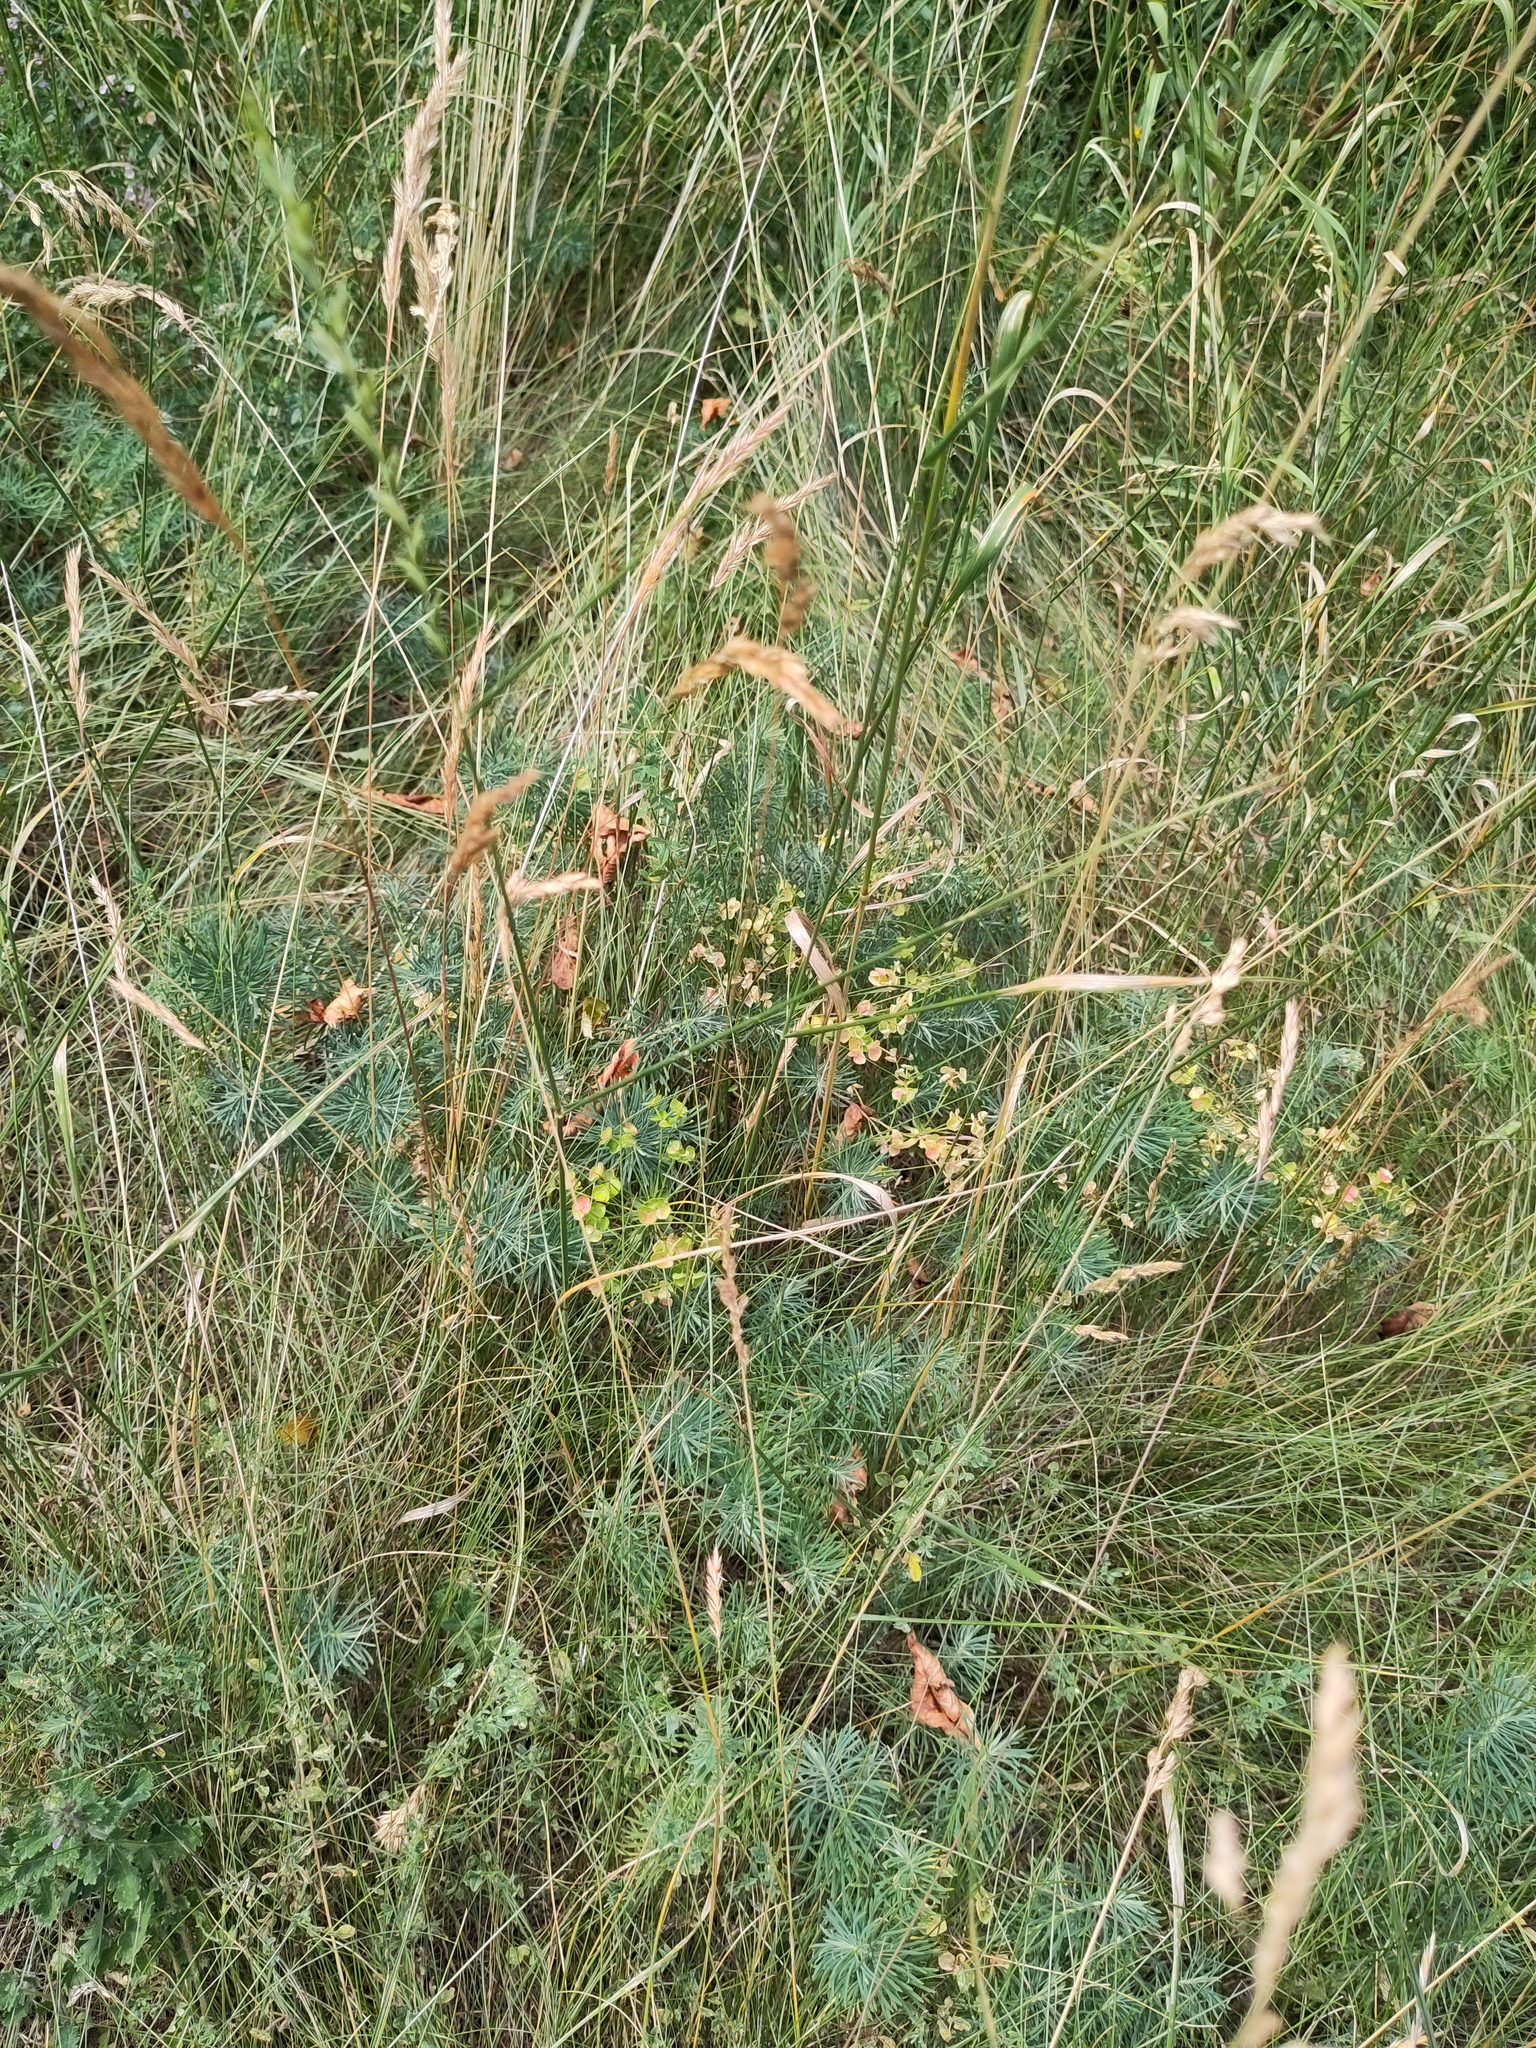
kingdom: Plantae
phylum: Tracheophyta
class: Magnoliopsida
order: Malpighiales
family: Euphorbiaceae
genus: Euphorbia
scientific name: Euphorbia cyparissias
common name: Cypress spurge
